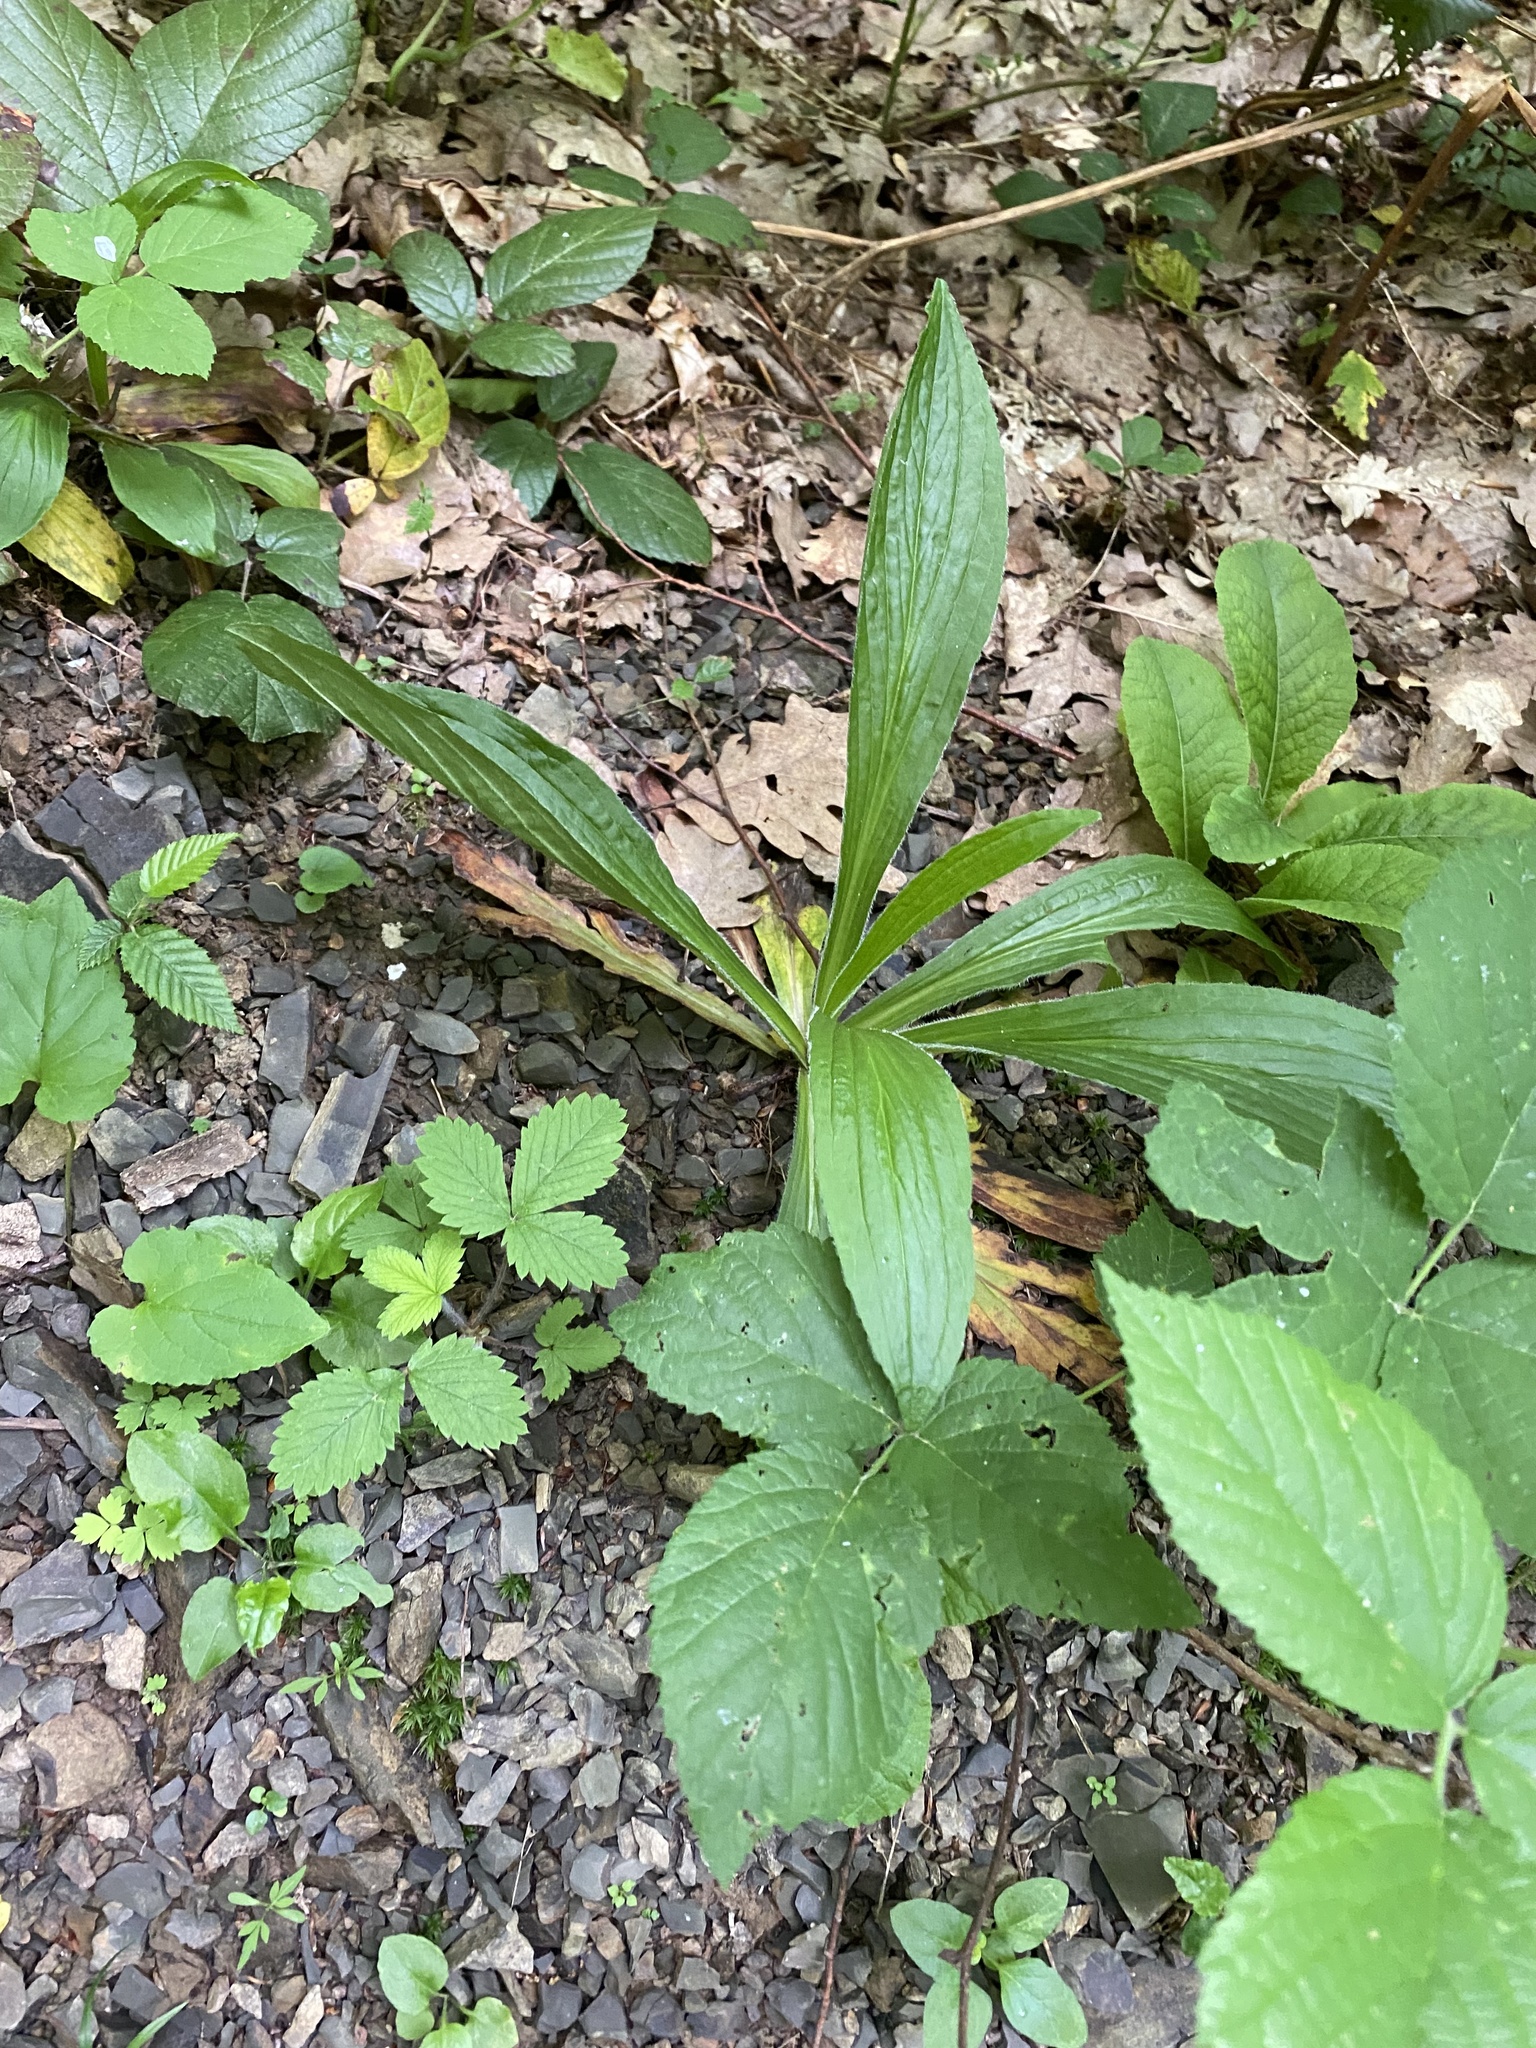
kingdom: Plantae
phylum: Tracheophyta
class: Magnoliopsida
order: Lamiales
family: Plantaginaceae
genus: Digitalis
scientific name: Digitalis ferruginea
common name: Rusty foxglove
